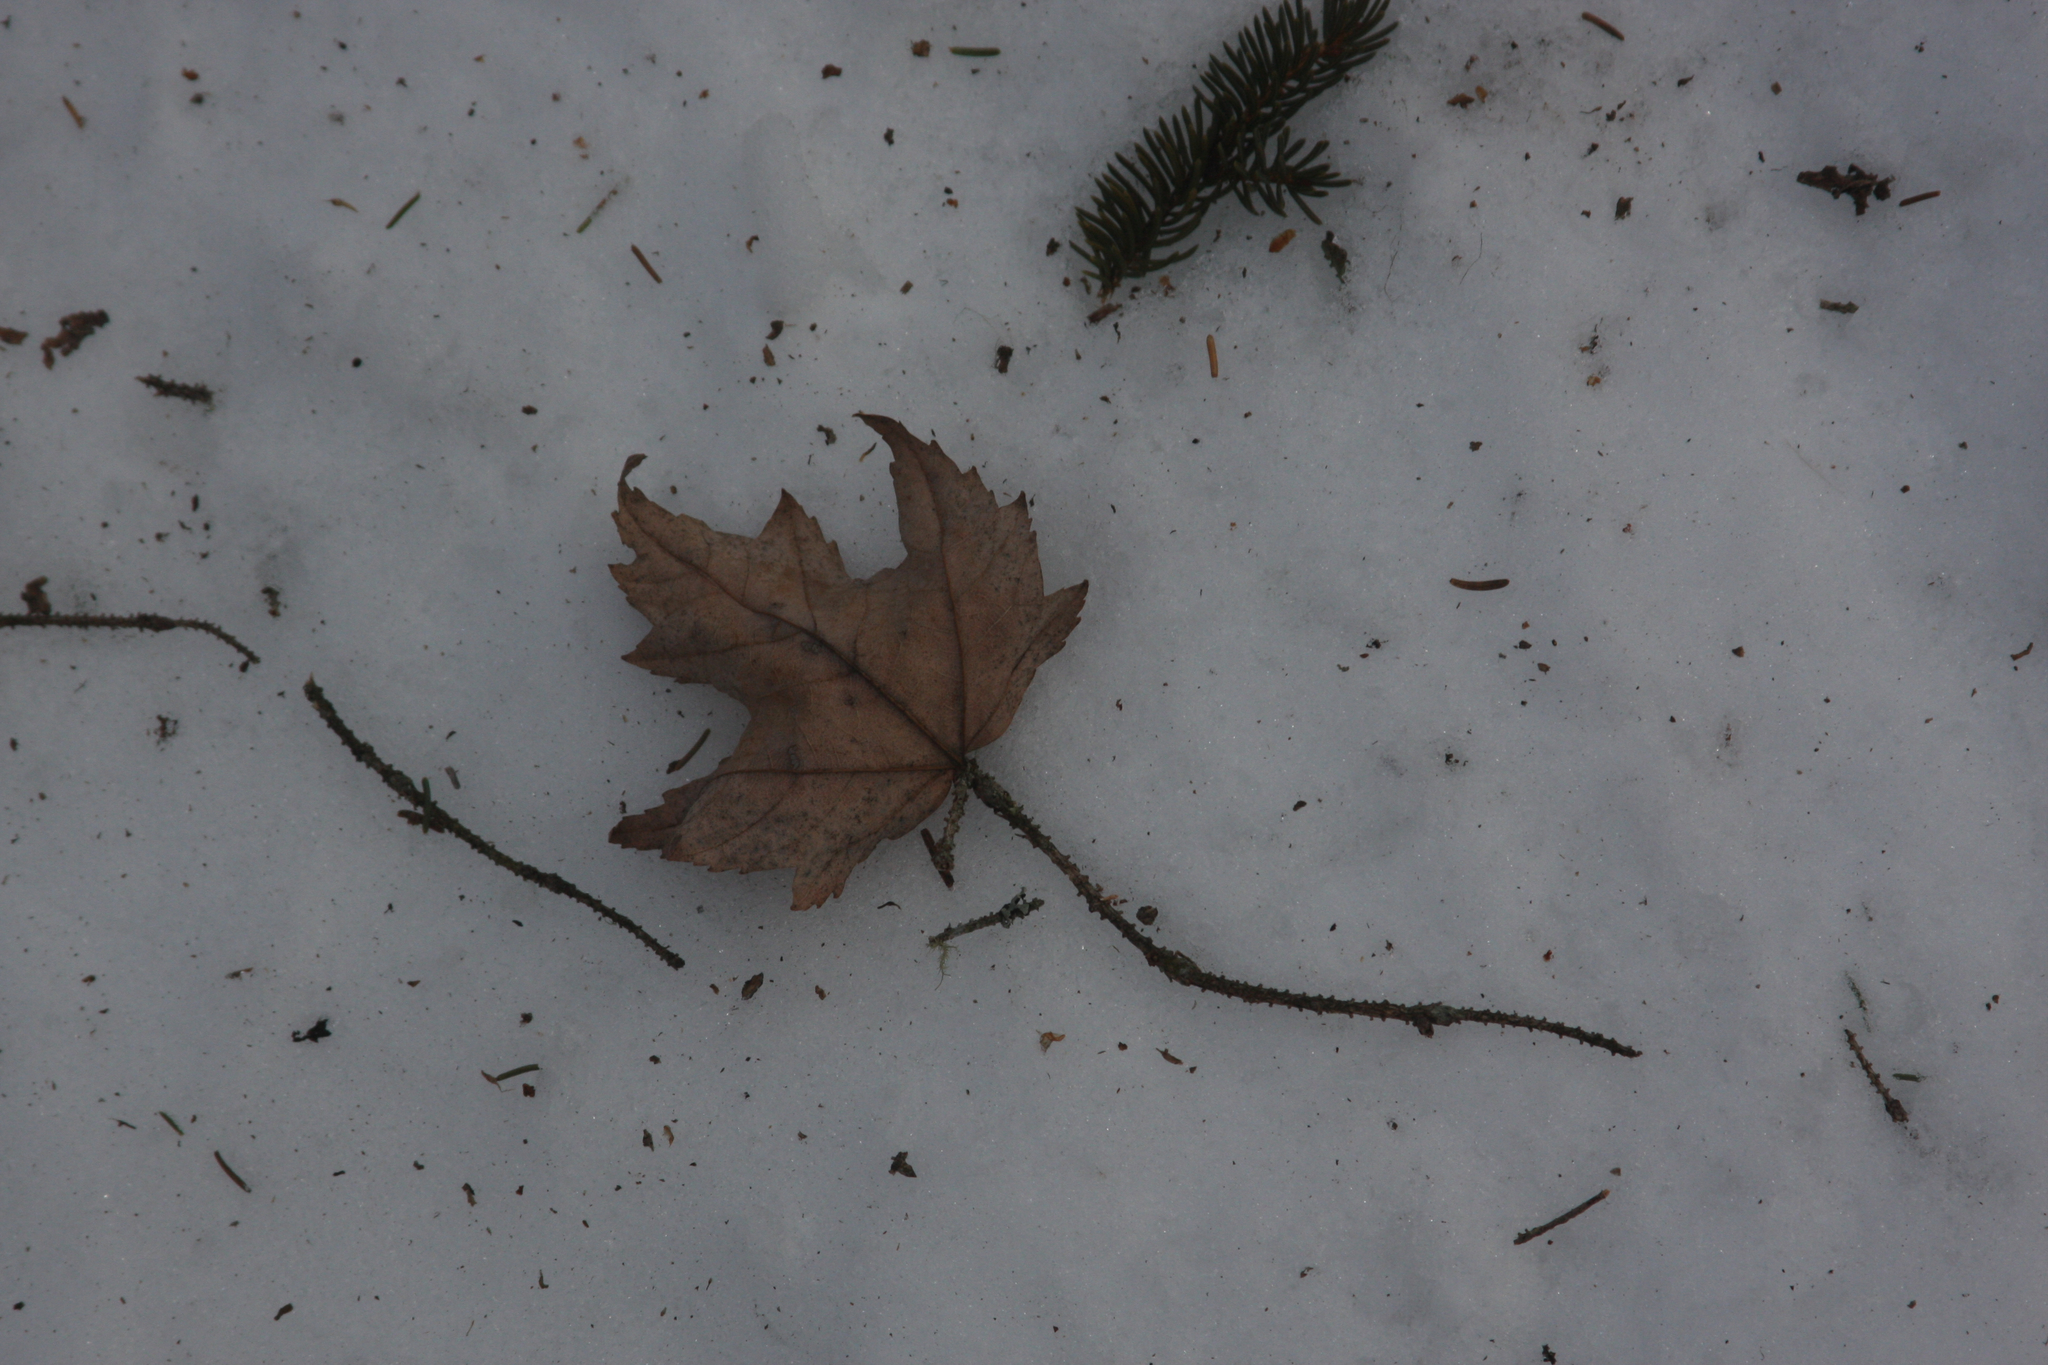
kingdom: Plantae
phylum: Tracheophyta
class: Magnoliopsida
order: Sapindales
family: Sapindaceae
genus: Acer
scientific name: Acer rubrum
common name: Red maple
